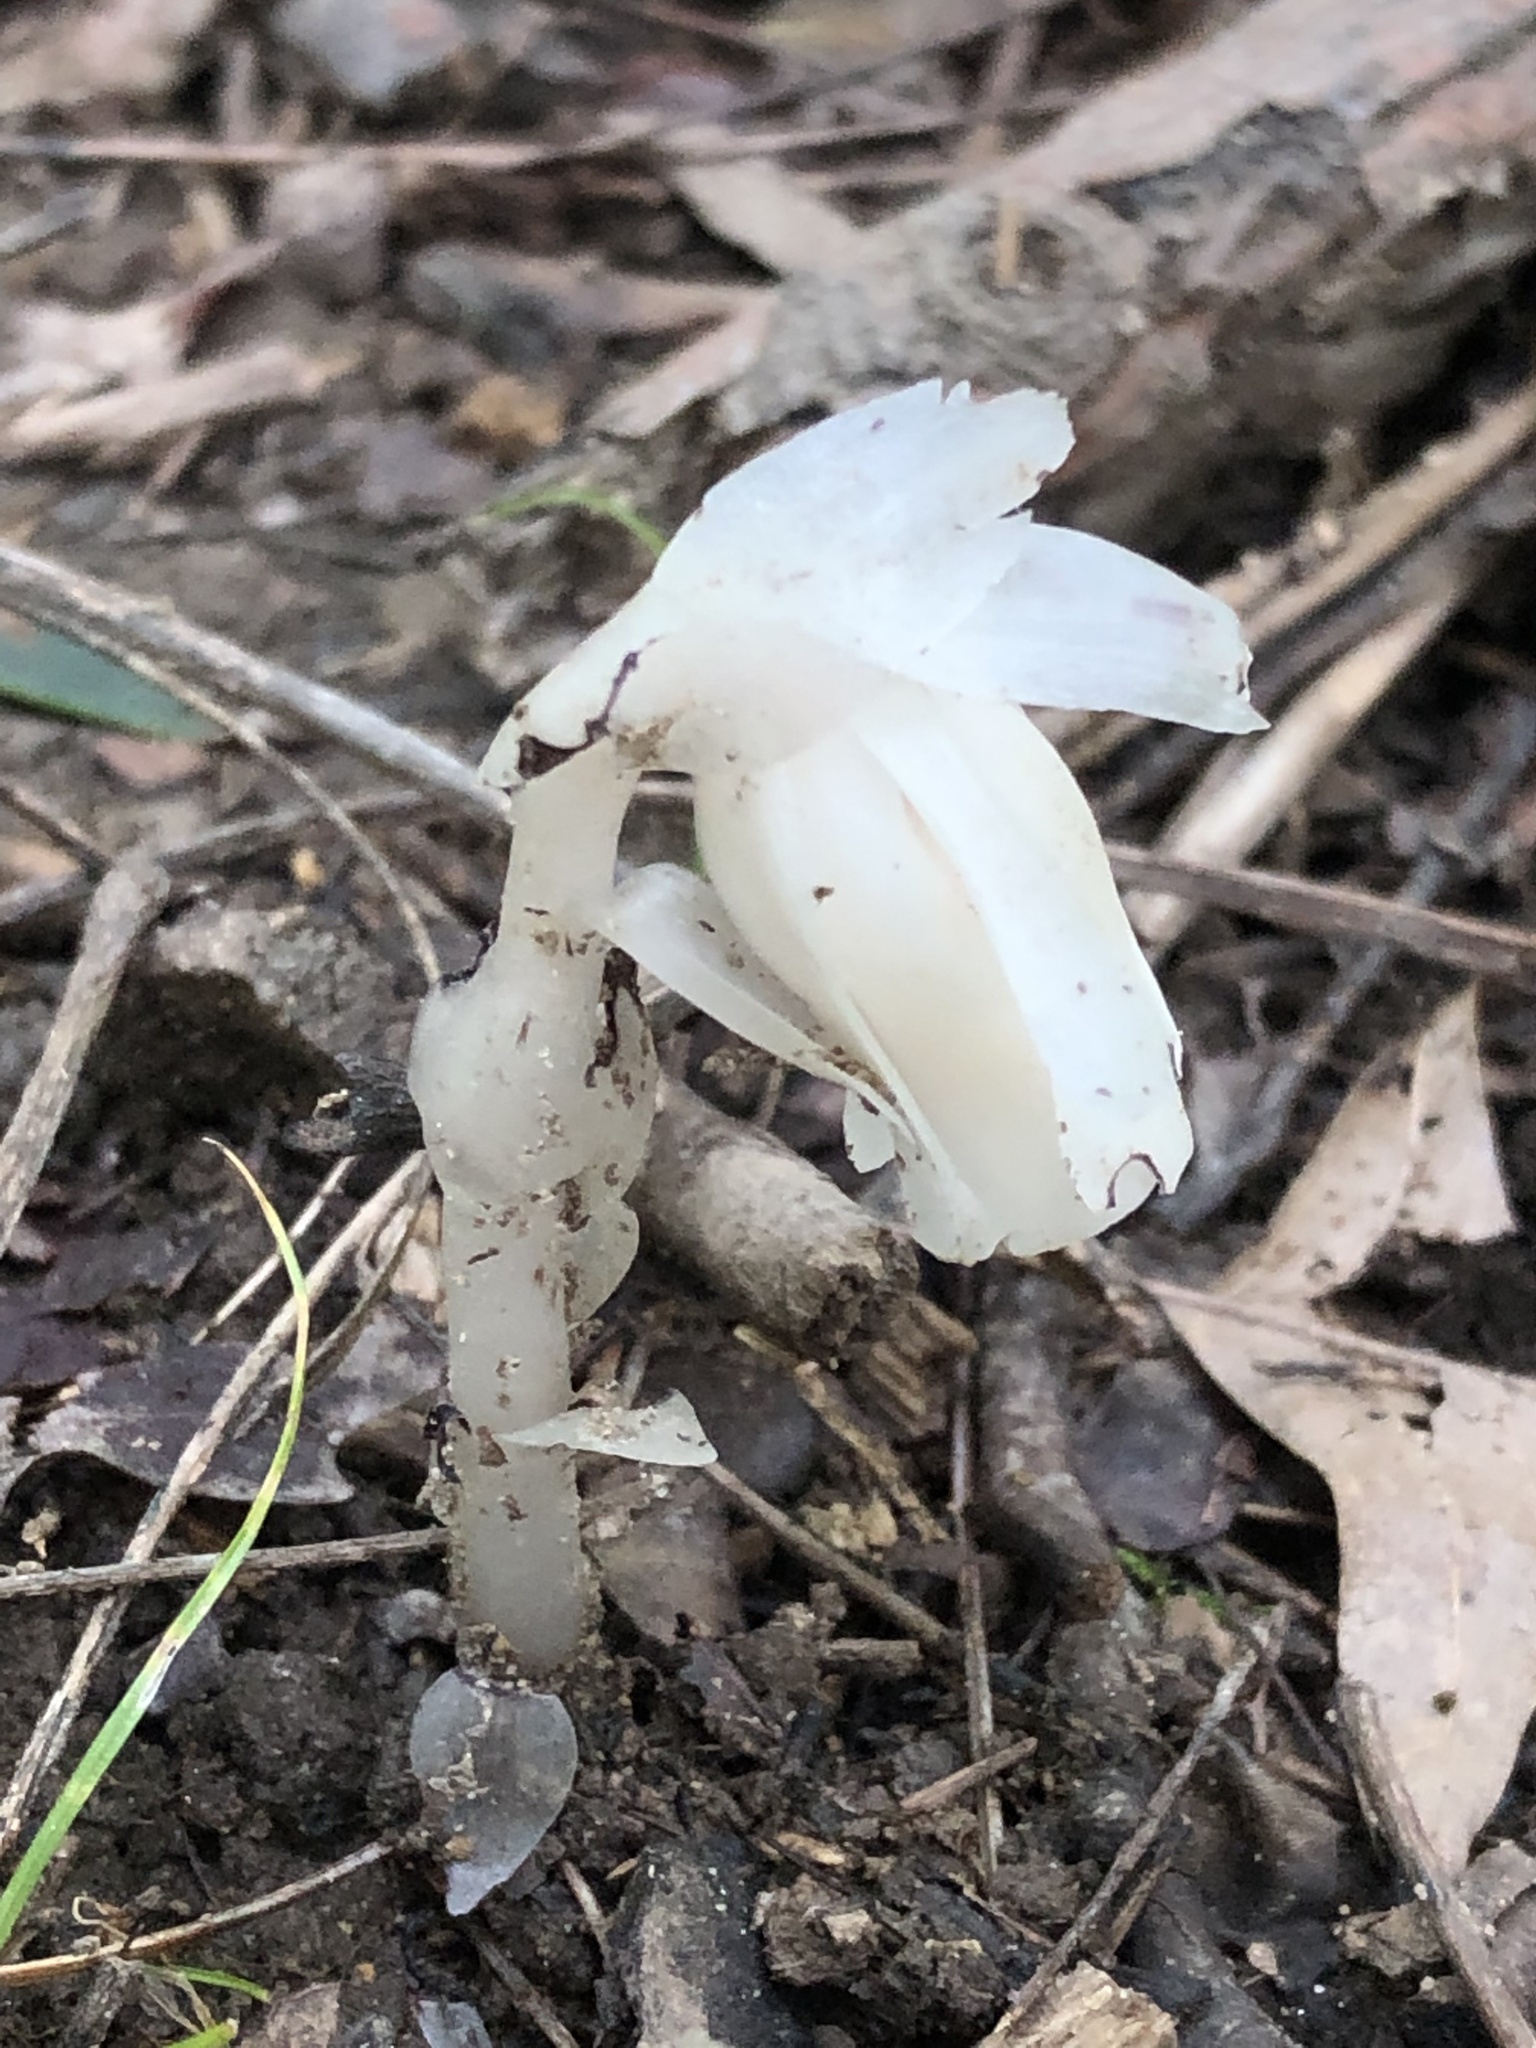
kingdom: Plantae
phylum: Tracheophyta
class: Magnoliopsida
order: Ericales
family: Ericaceae
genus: Monotropa
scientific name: Monotropa uniflora
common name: Convulsion root
